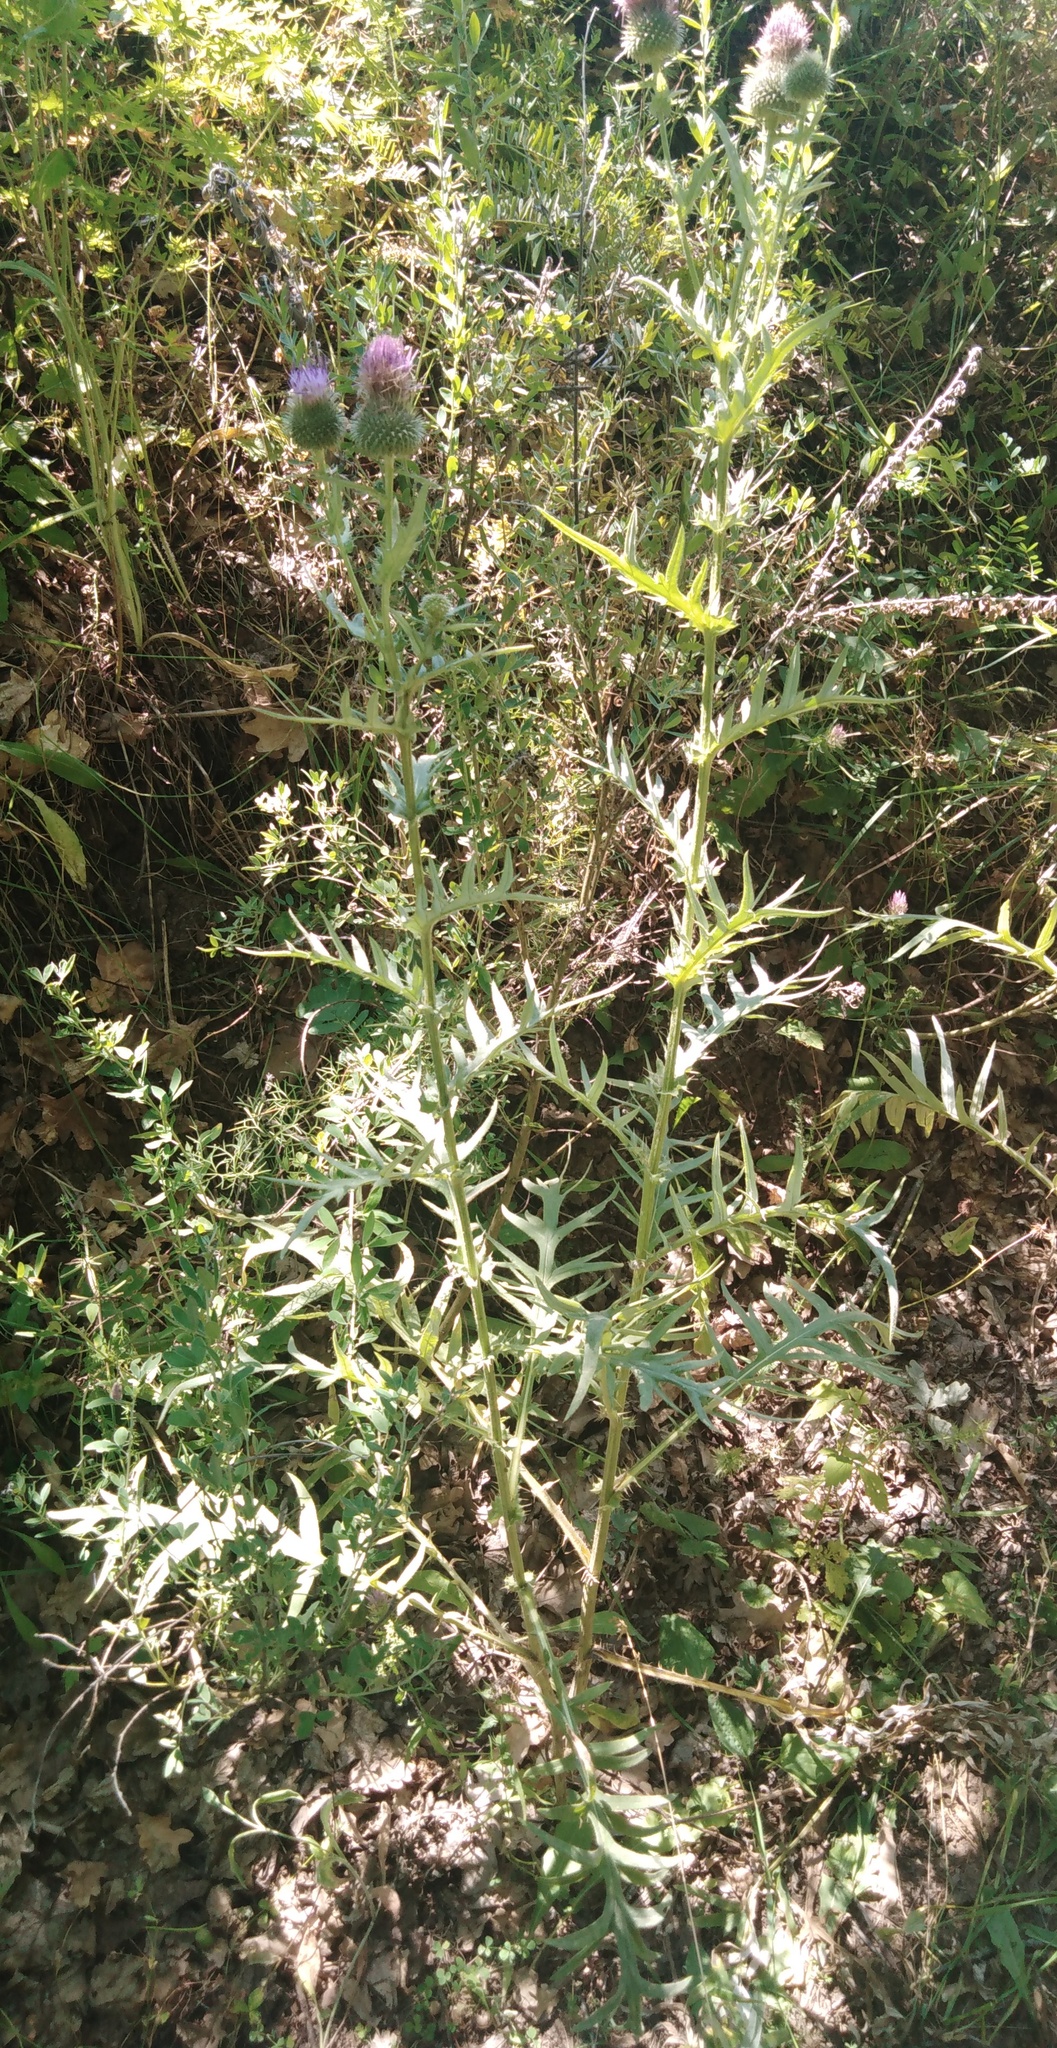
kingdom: Plantae
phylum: Tracheophyta
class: Magnoliopsida
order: Asterales
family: Asteraceae
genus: Lophiolepis
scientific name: Lophiolepis ciliata
